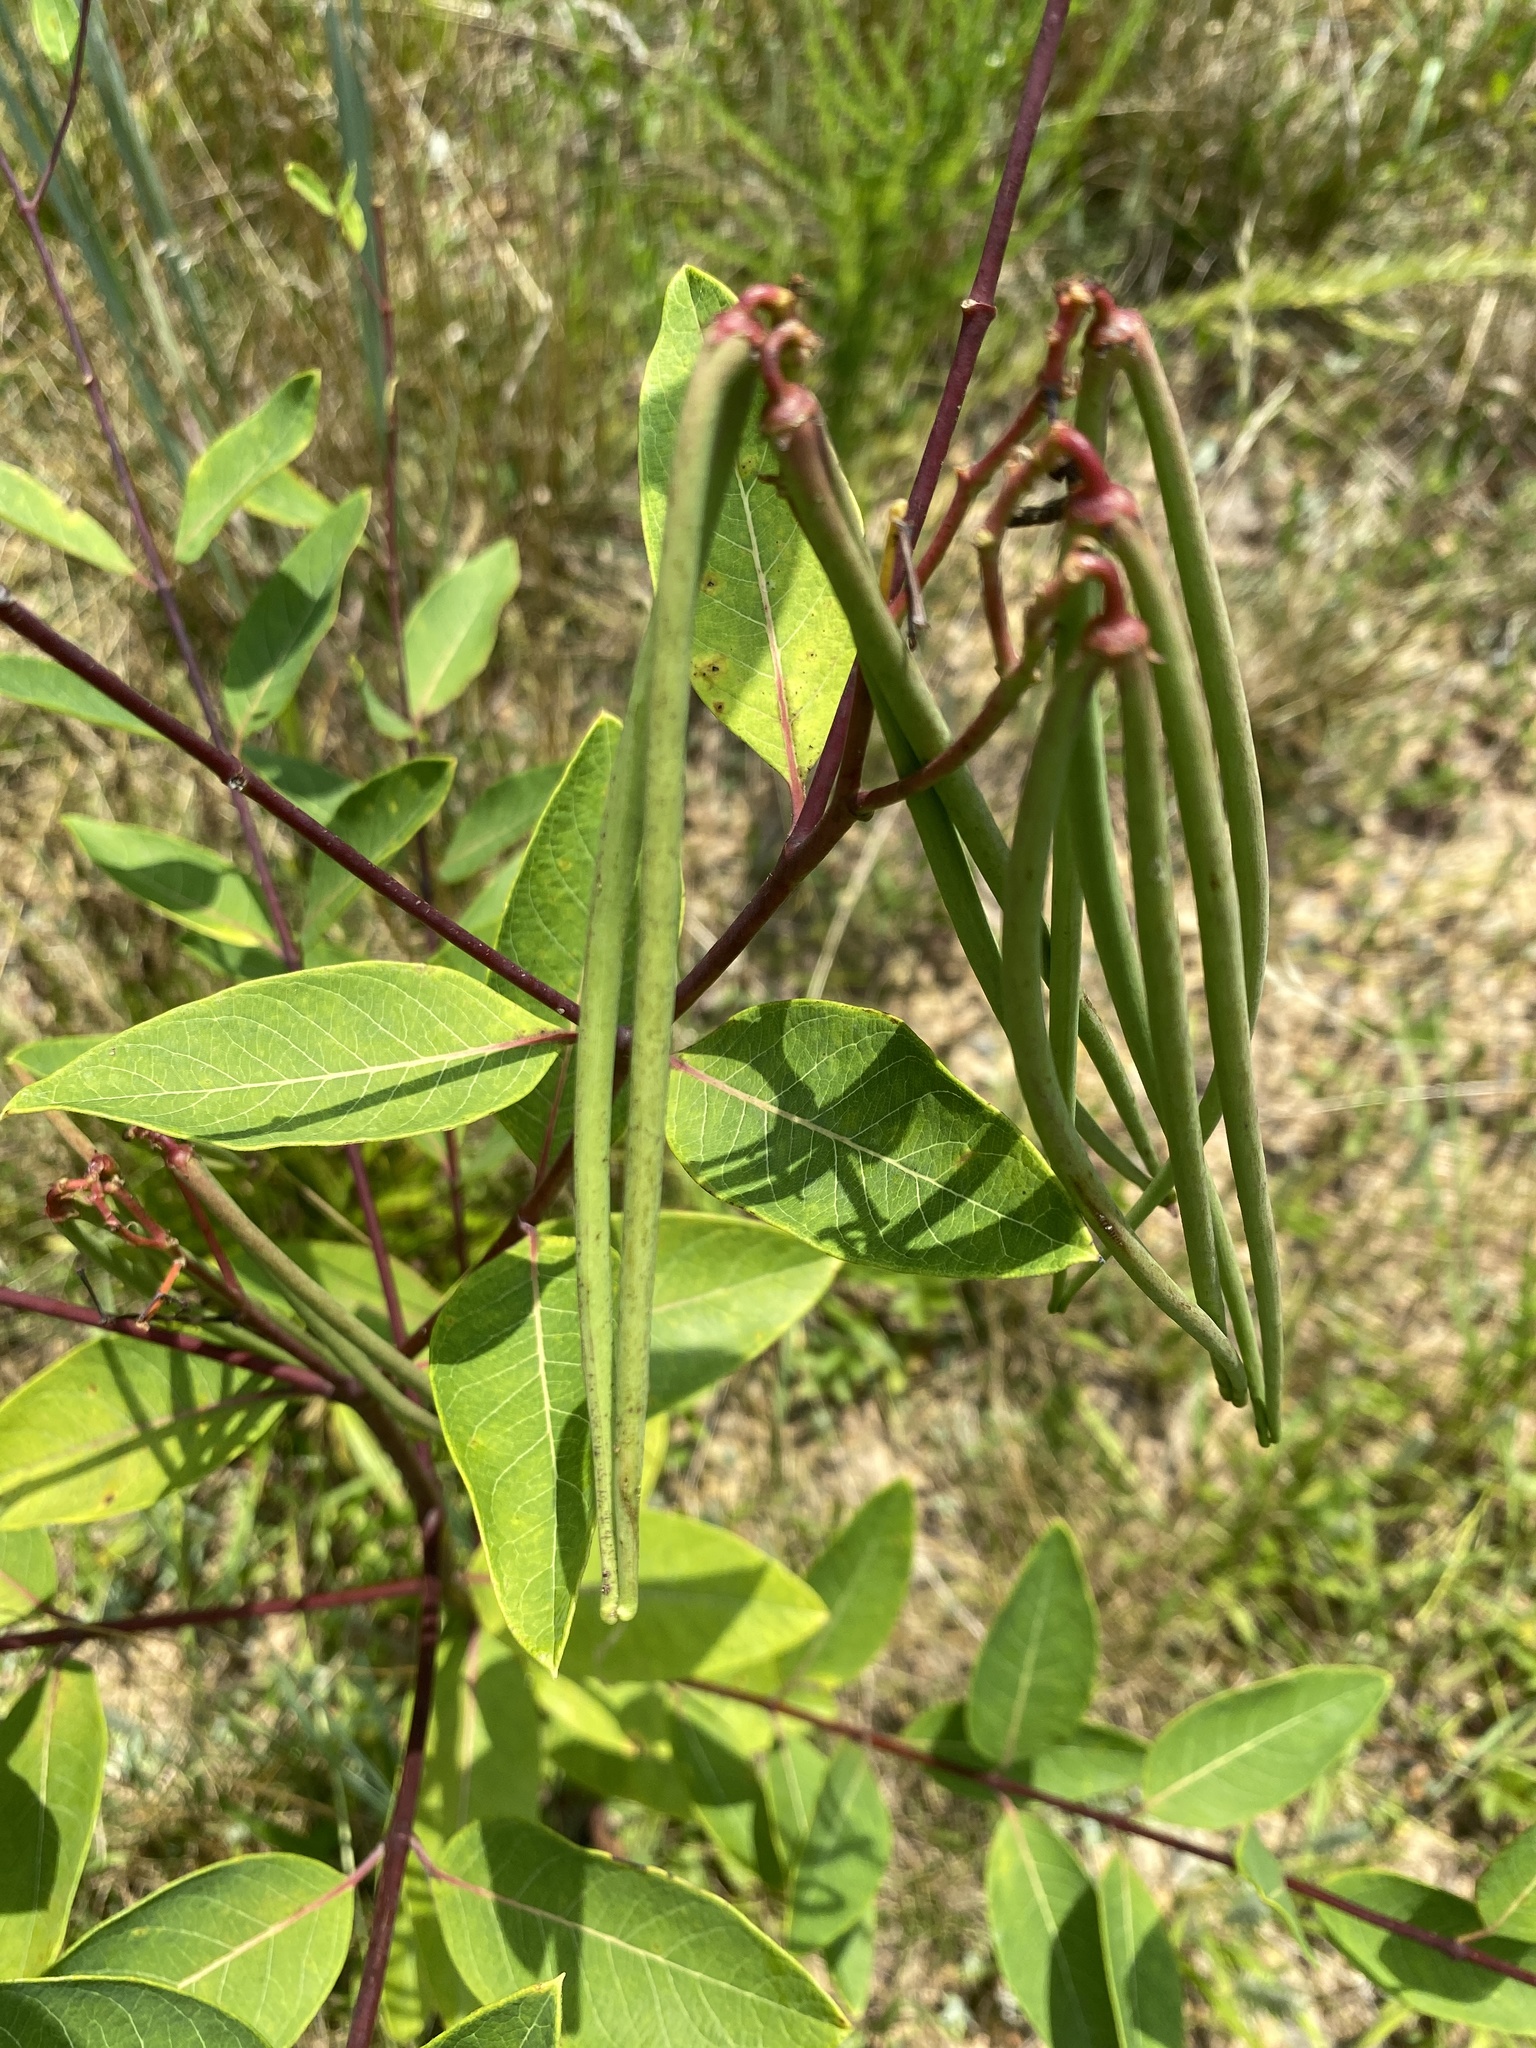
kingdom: Plantae
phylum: Tracheophyta
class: Magnoliopsida
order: Gentianales
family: Apocynaceae
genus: Apocynum
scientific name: Apocynum cannabinum
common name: Hemp dogbane
